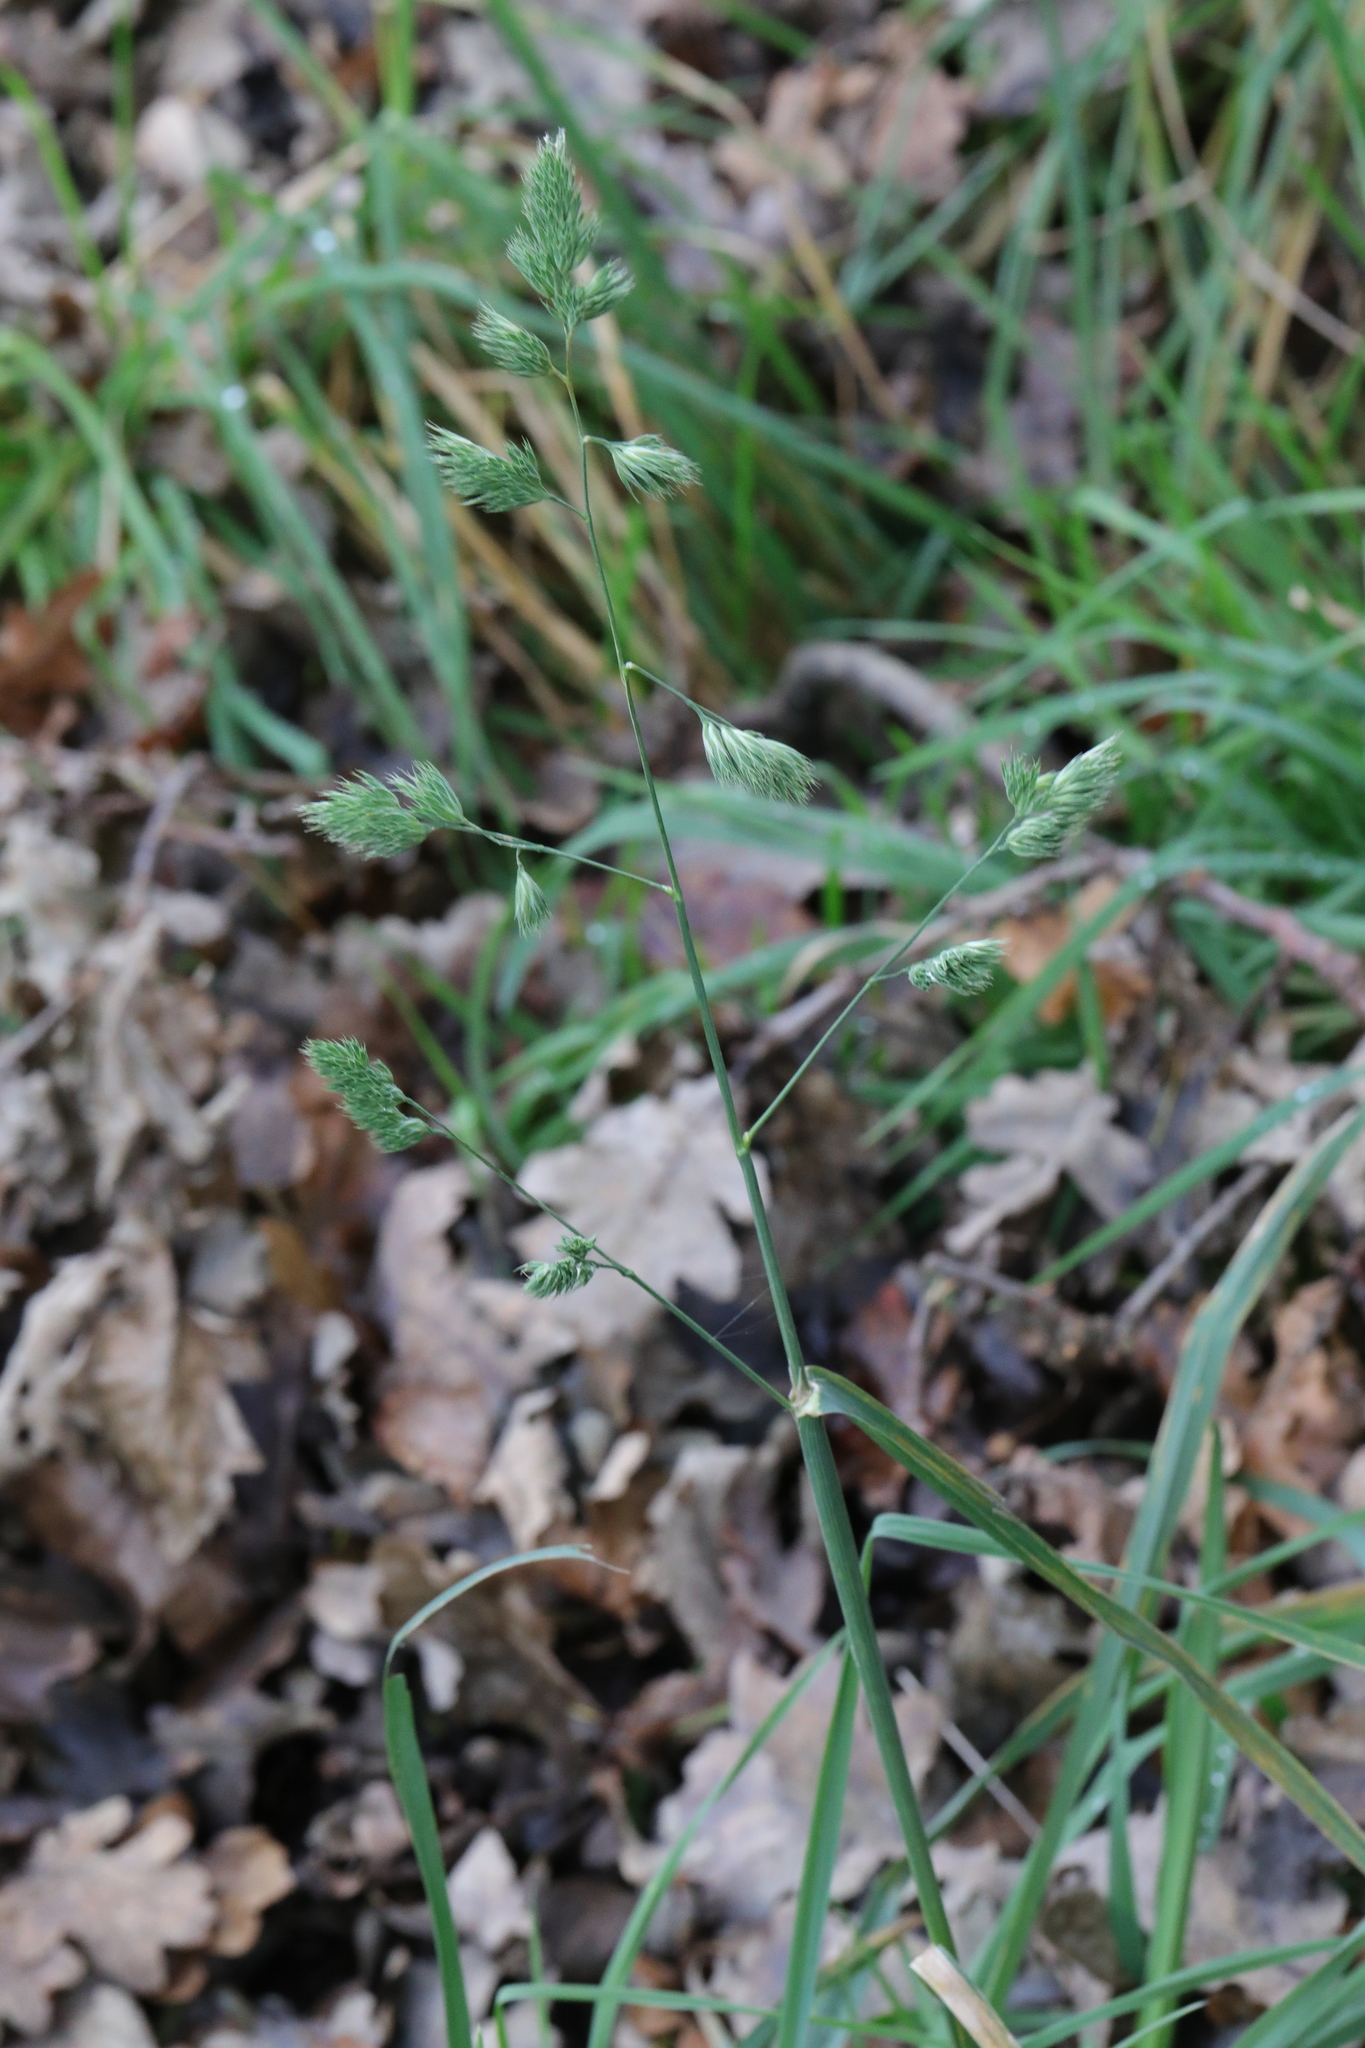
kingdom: Plantae
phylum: Tracheophyta
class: Liliopsida
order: Poales
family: Poaceae
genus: Dactylis
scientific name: Dactylis glomerata
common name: Orchardgrass
